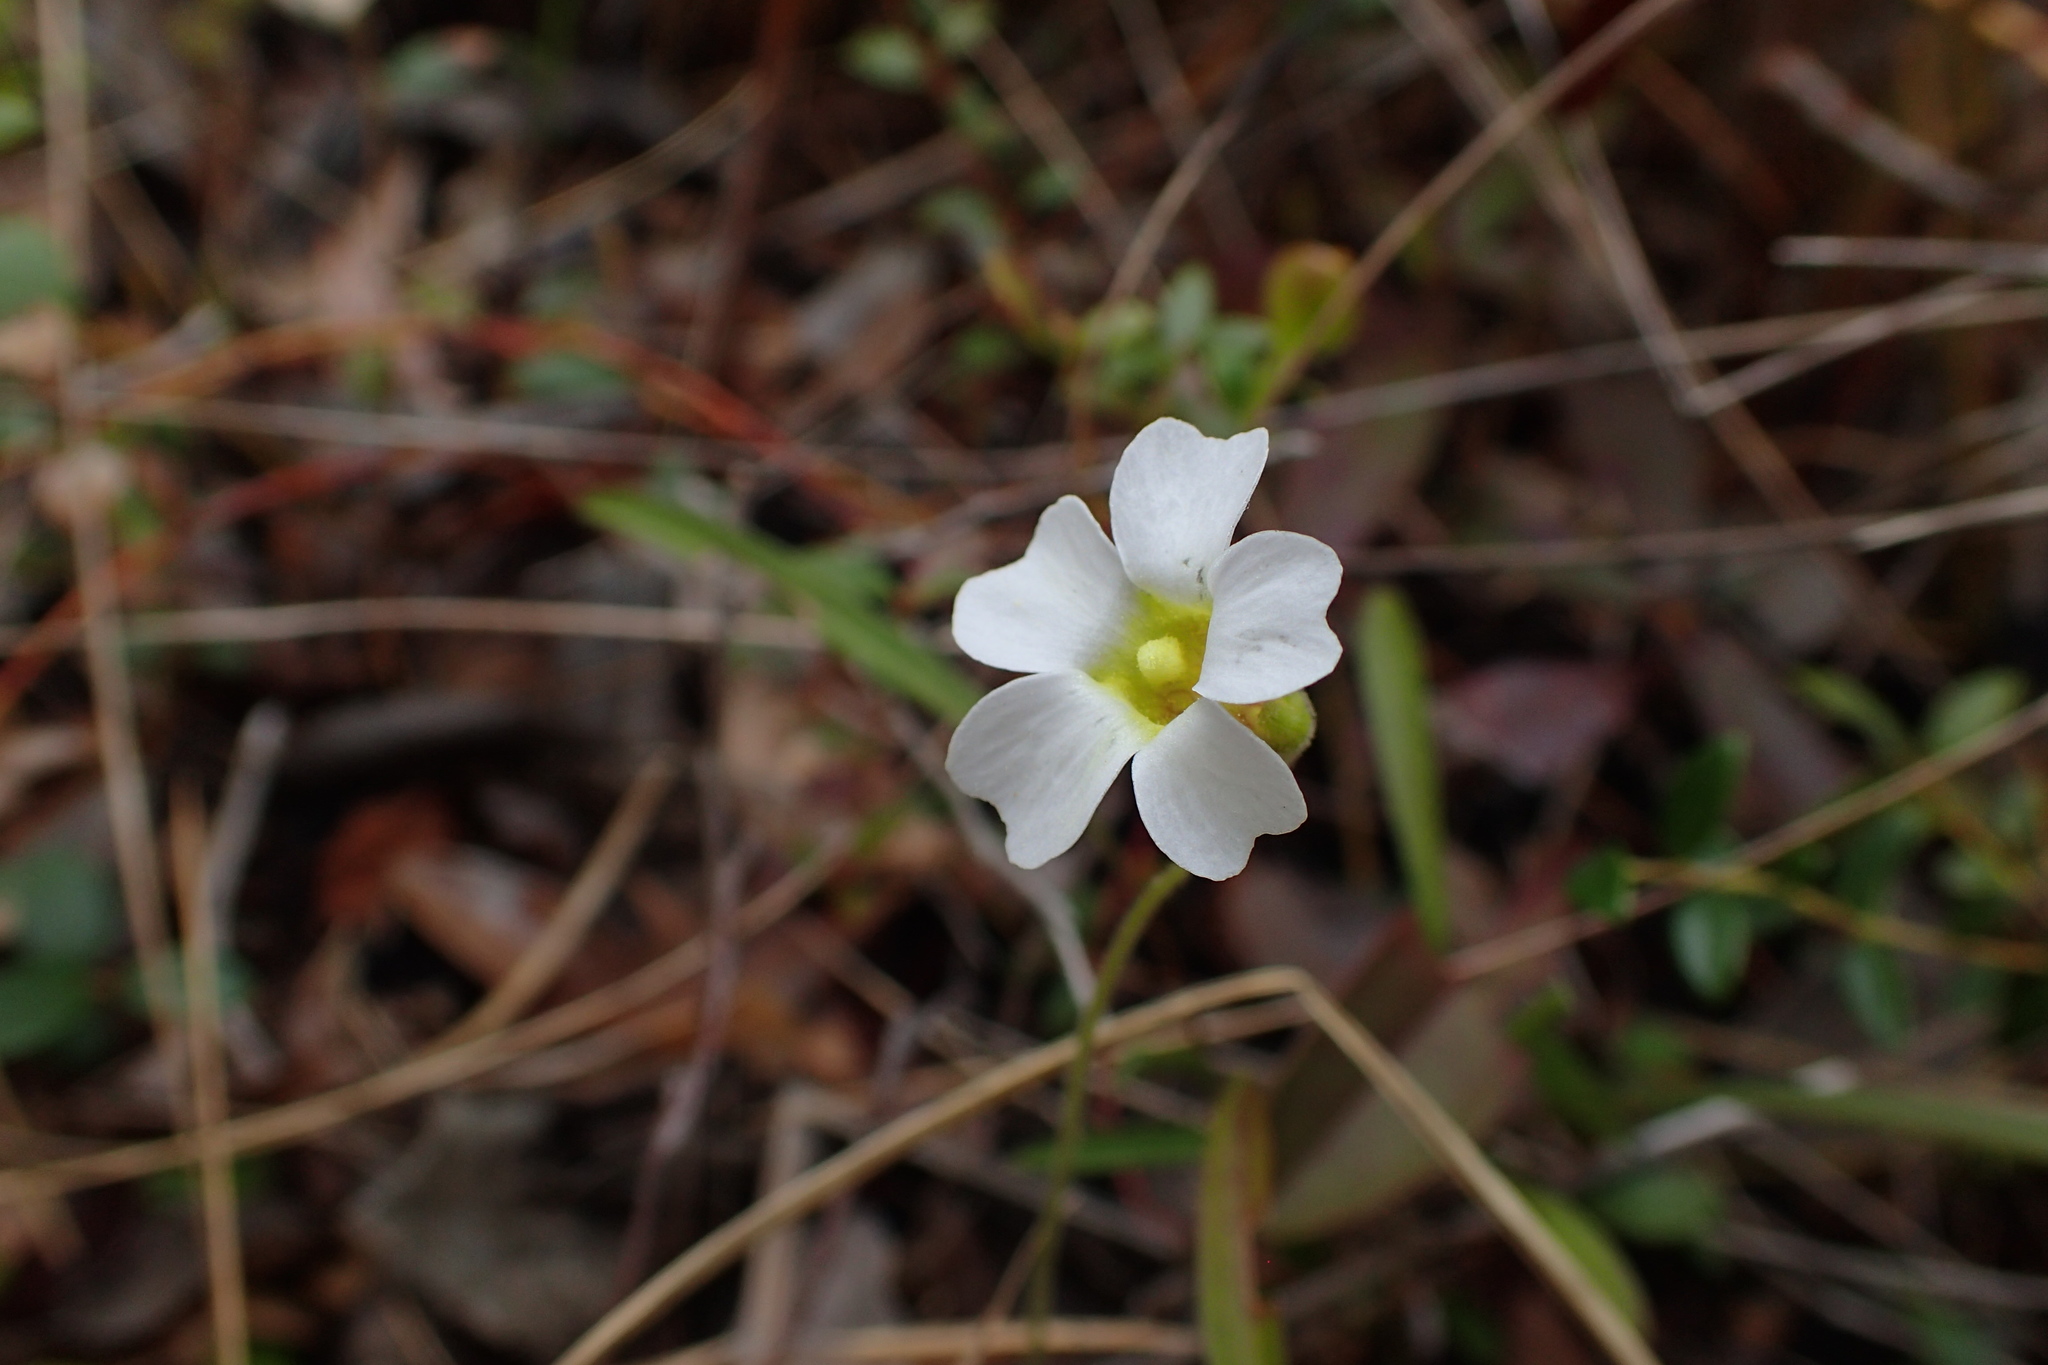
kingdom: Plantae
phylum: Tracheophyta
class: Magnoliopsida
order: Lamiales
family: Lentibulariaceae
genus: Pinguicula
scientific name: Pinguicula pumila
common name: Small butterwort
